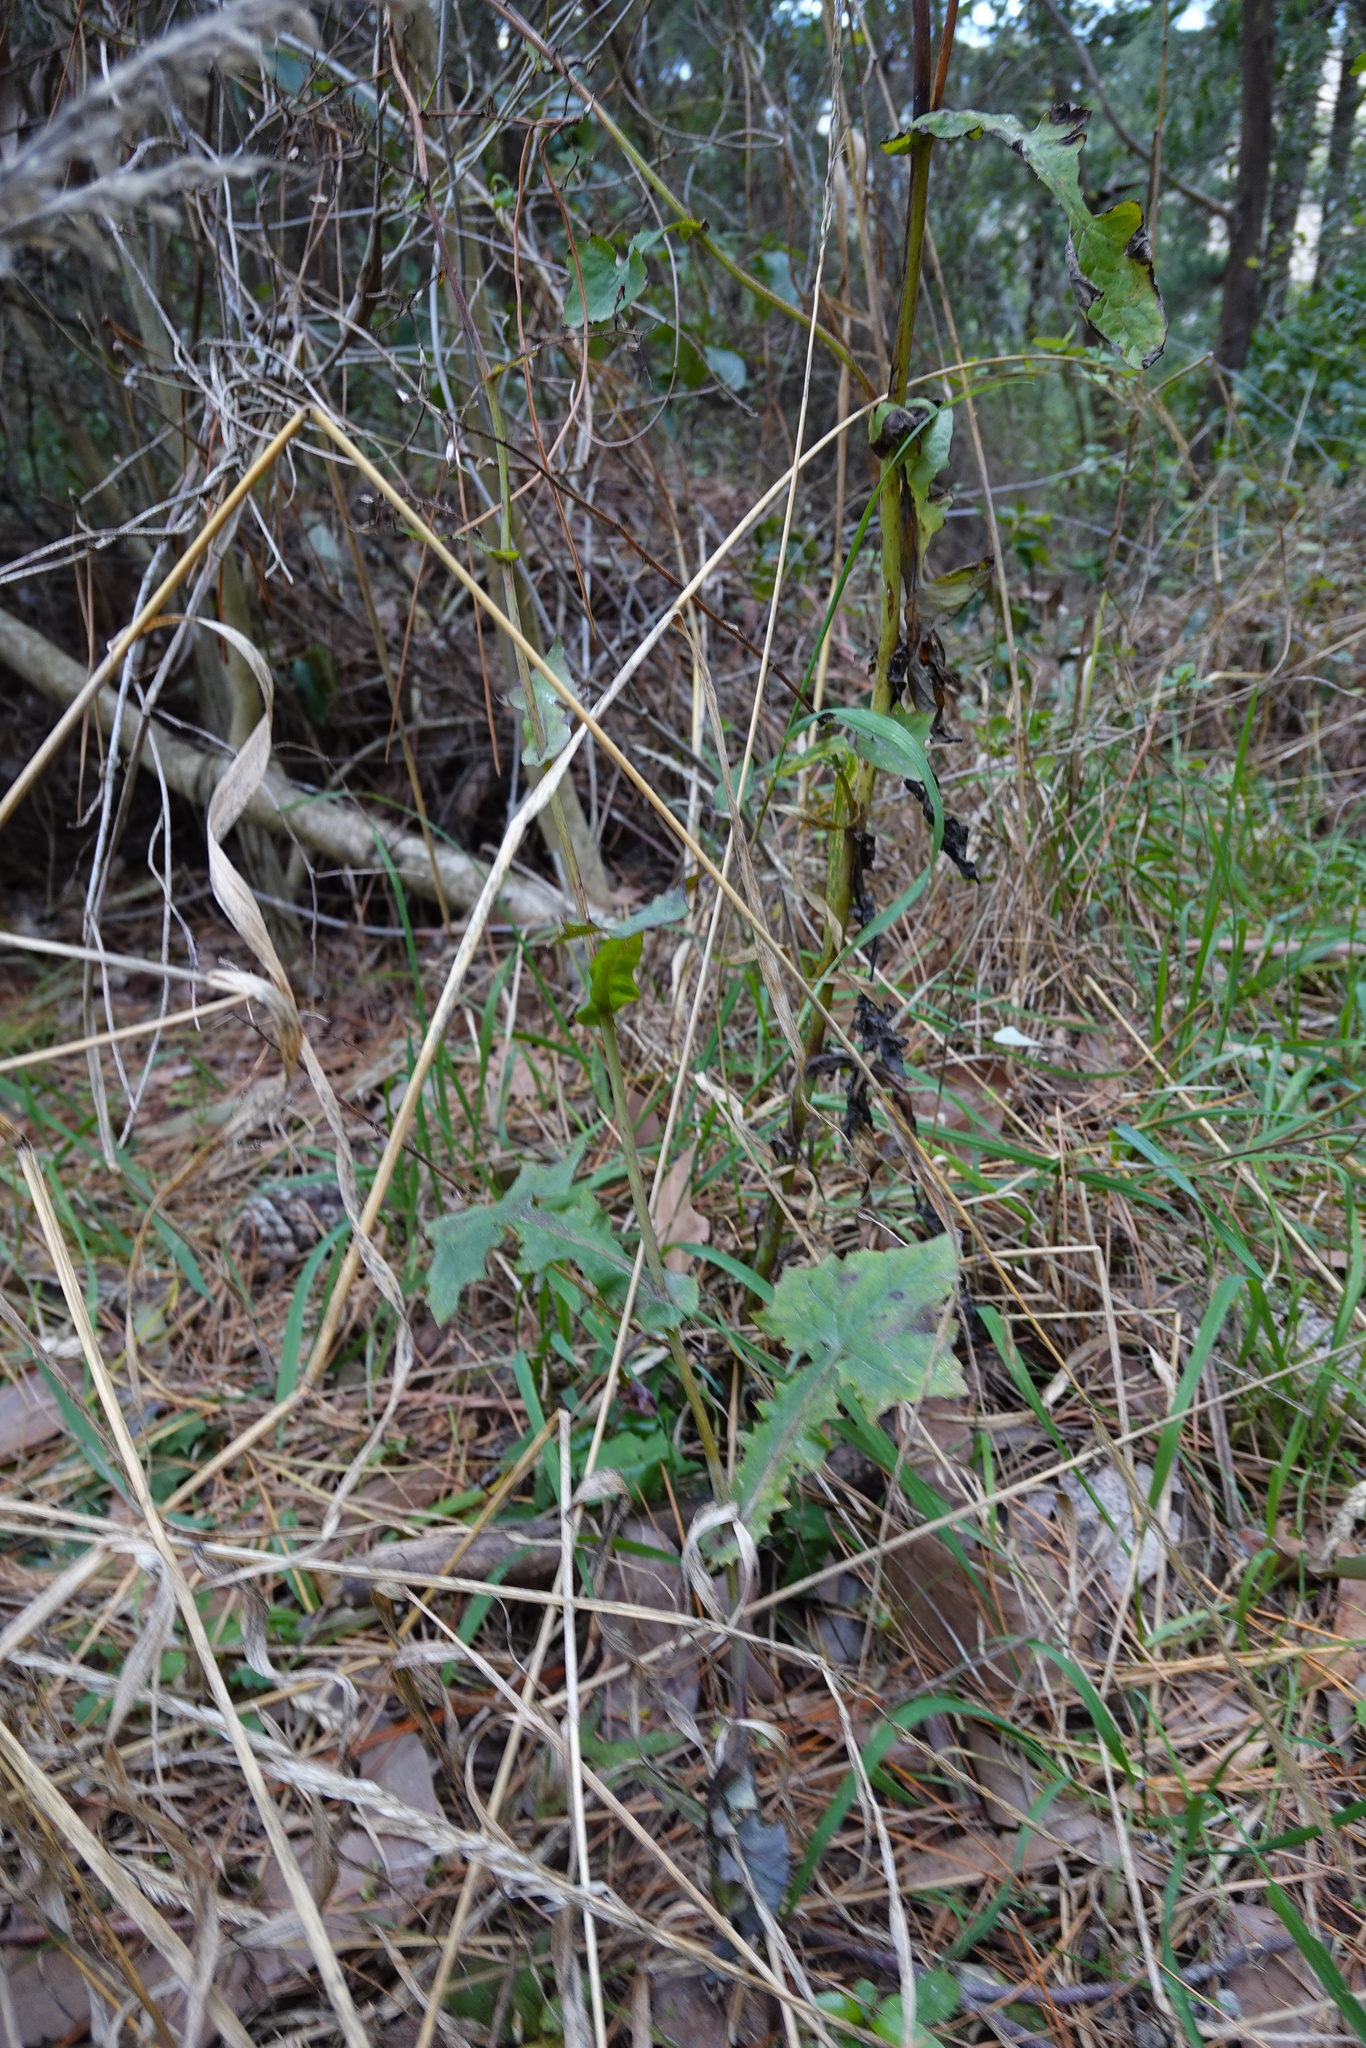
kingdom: Plantae
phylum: Tracheophyta
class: Magnoliopsida
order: Asterales
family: Asteraceae
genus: Mycelis
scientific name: Mycelis muralis
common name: Wall lettuce
